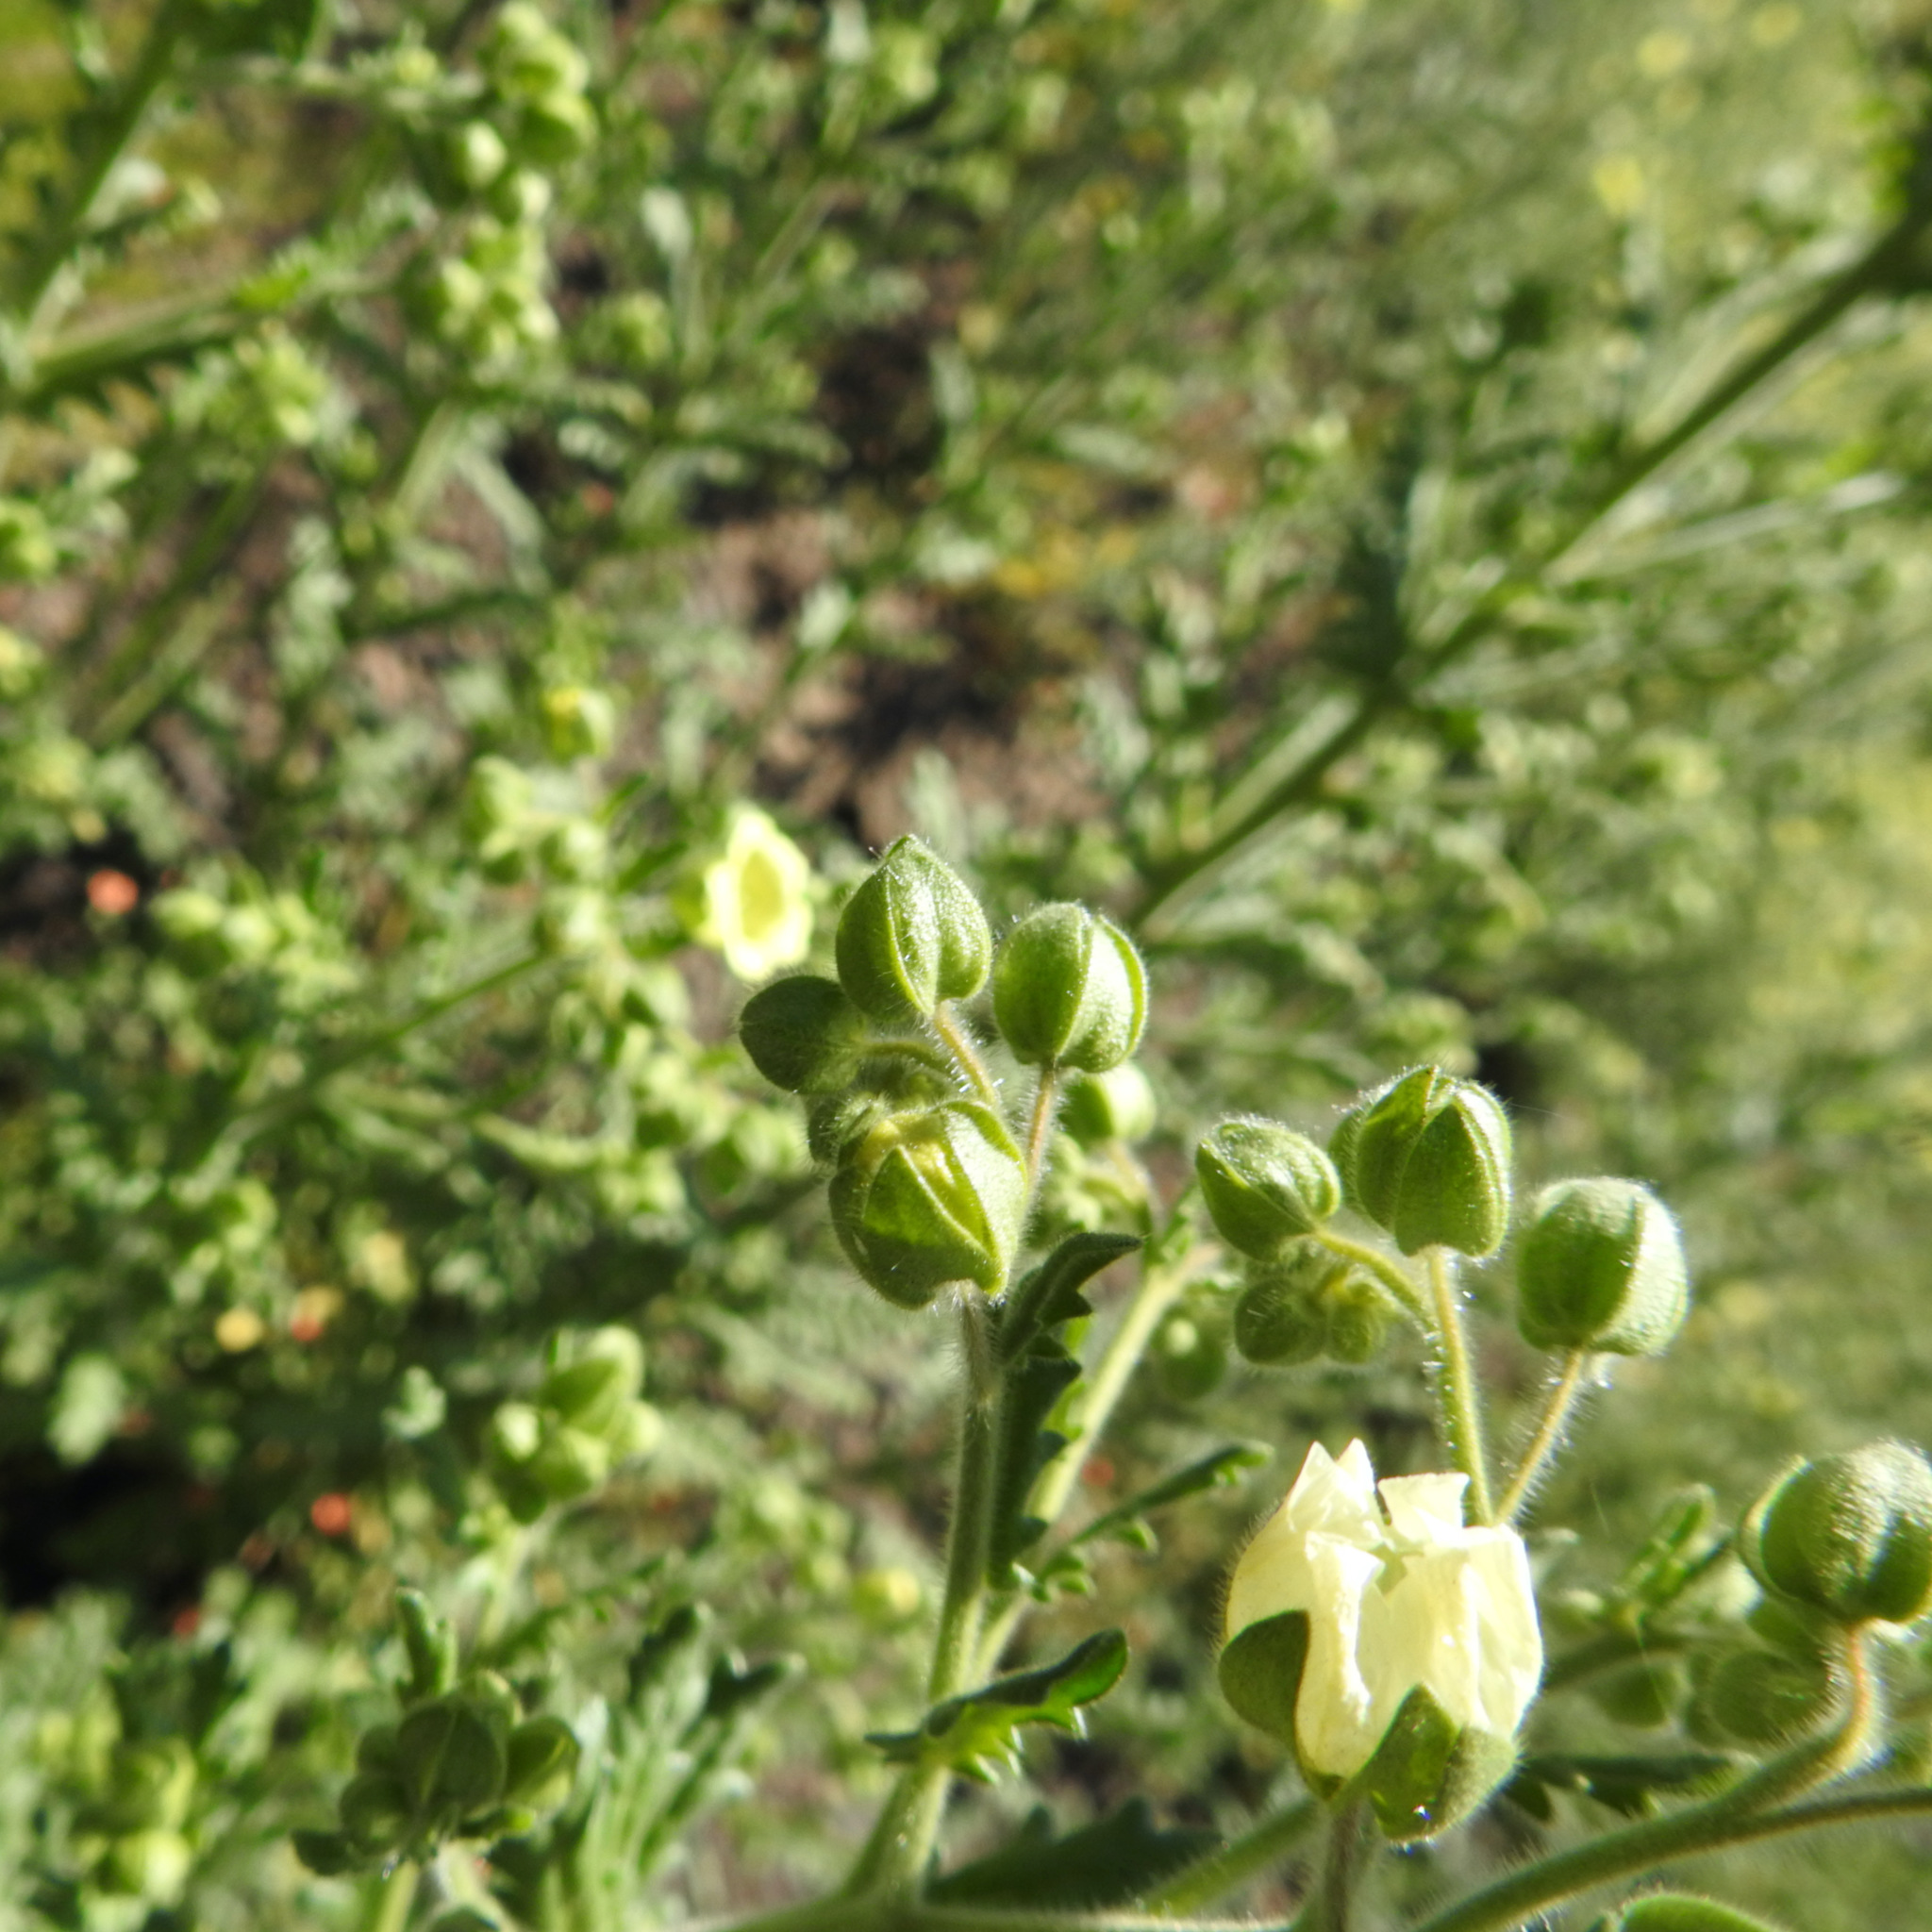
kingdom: Plantae
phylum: Tracheophyta
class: Magnoliopsida
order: Boraginales
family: Hydrophyllaceae
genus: Emmenanthe
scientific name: Emmenanthe penduliflora
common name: Whispering-bells
